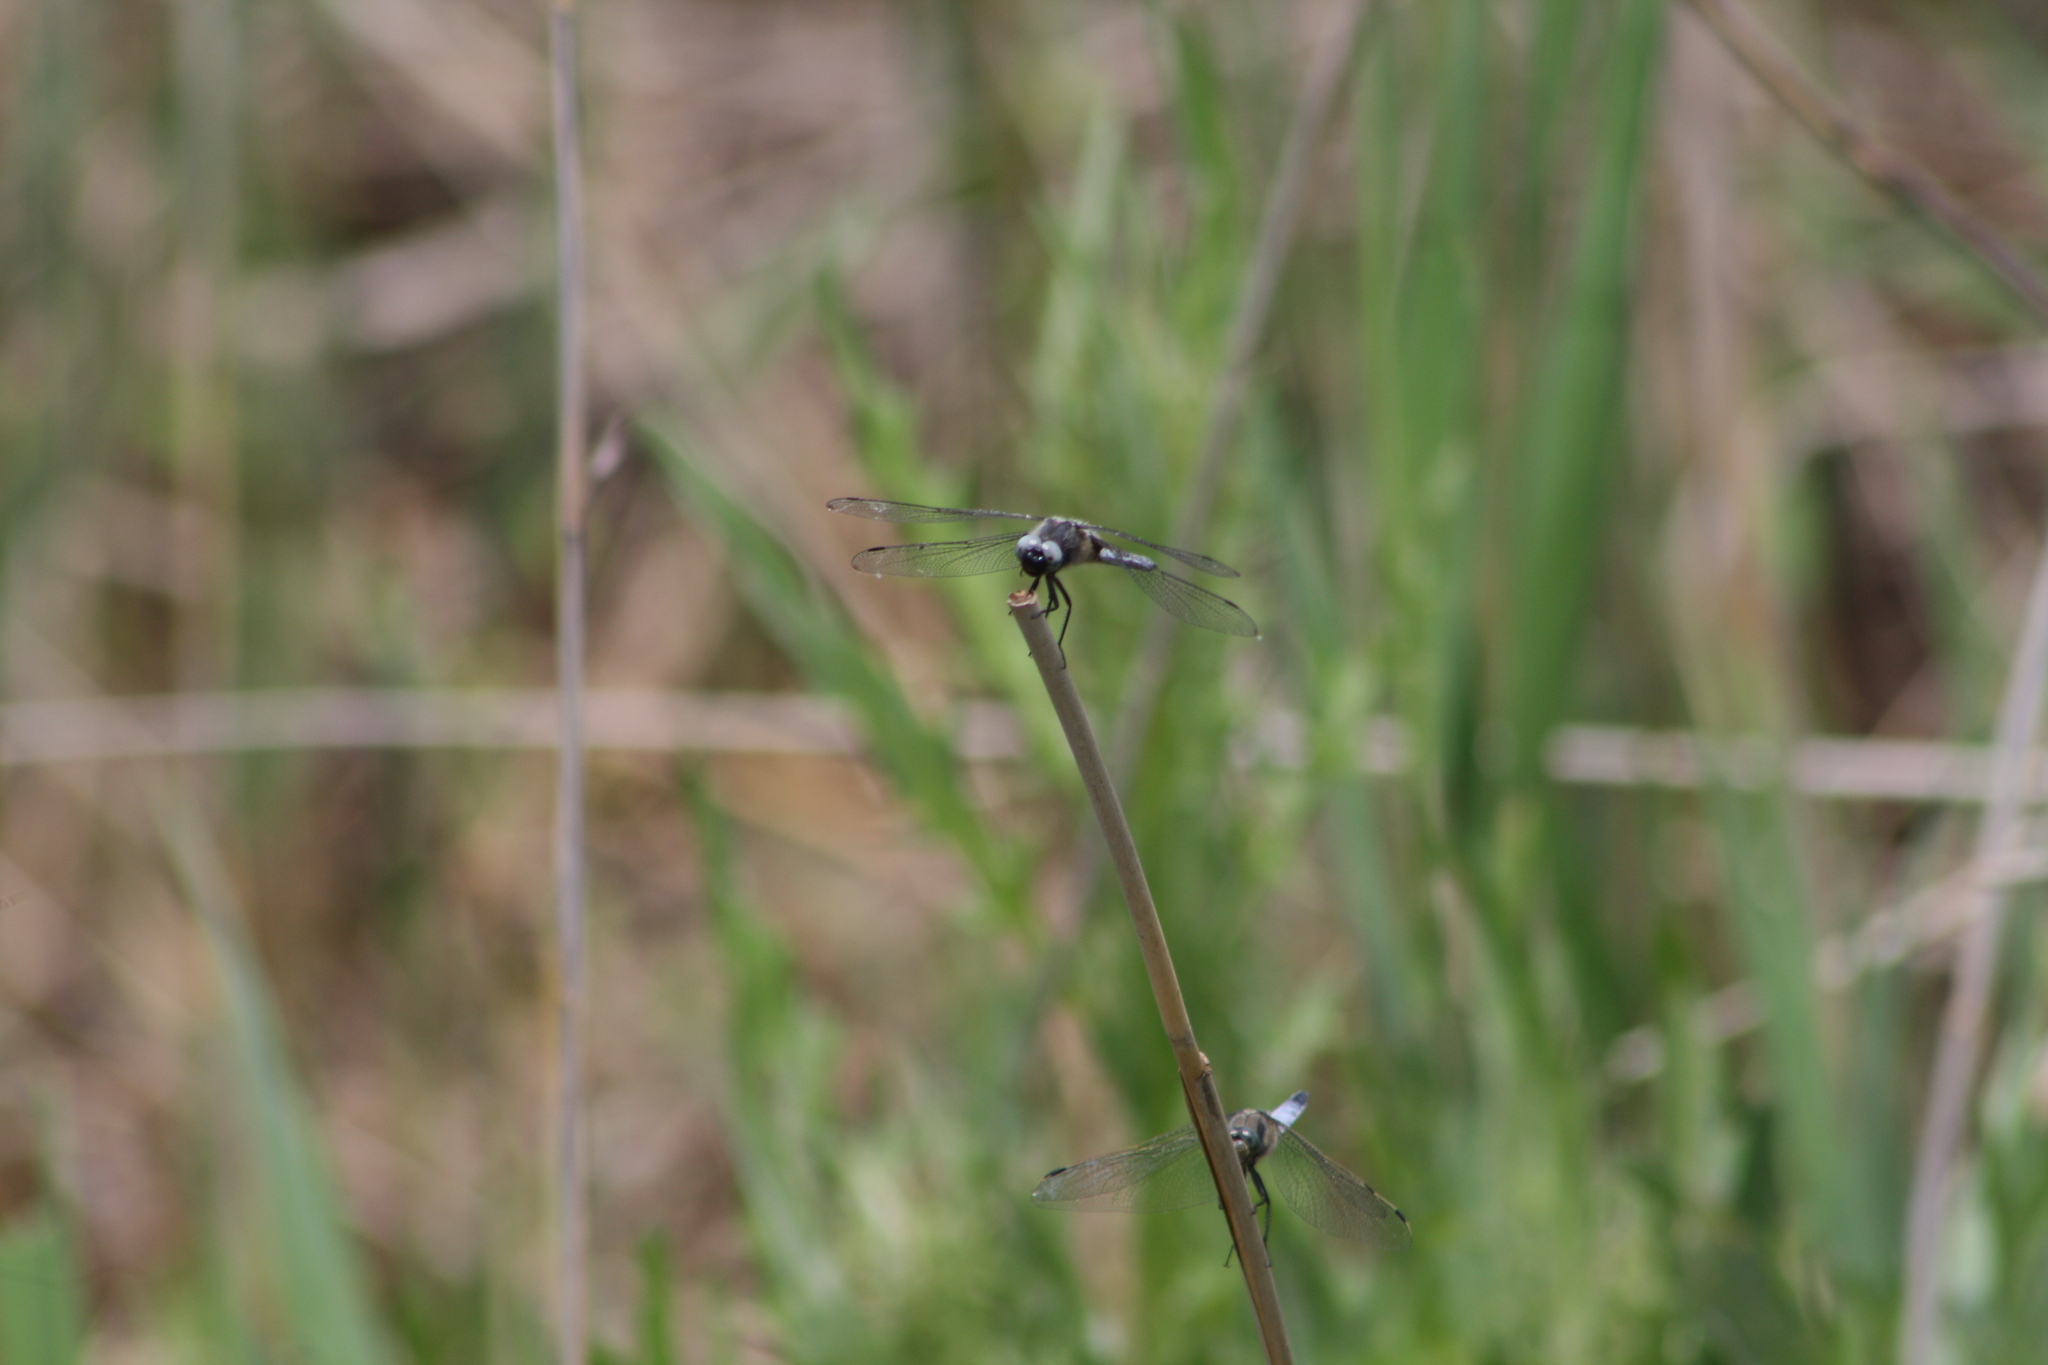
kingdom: Animalia
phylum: Arthropoda
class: Insecta
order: Odonata
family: Libellulidae
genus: Libellula
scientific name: Libellula fulva
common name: Blue chaser
